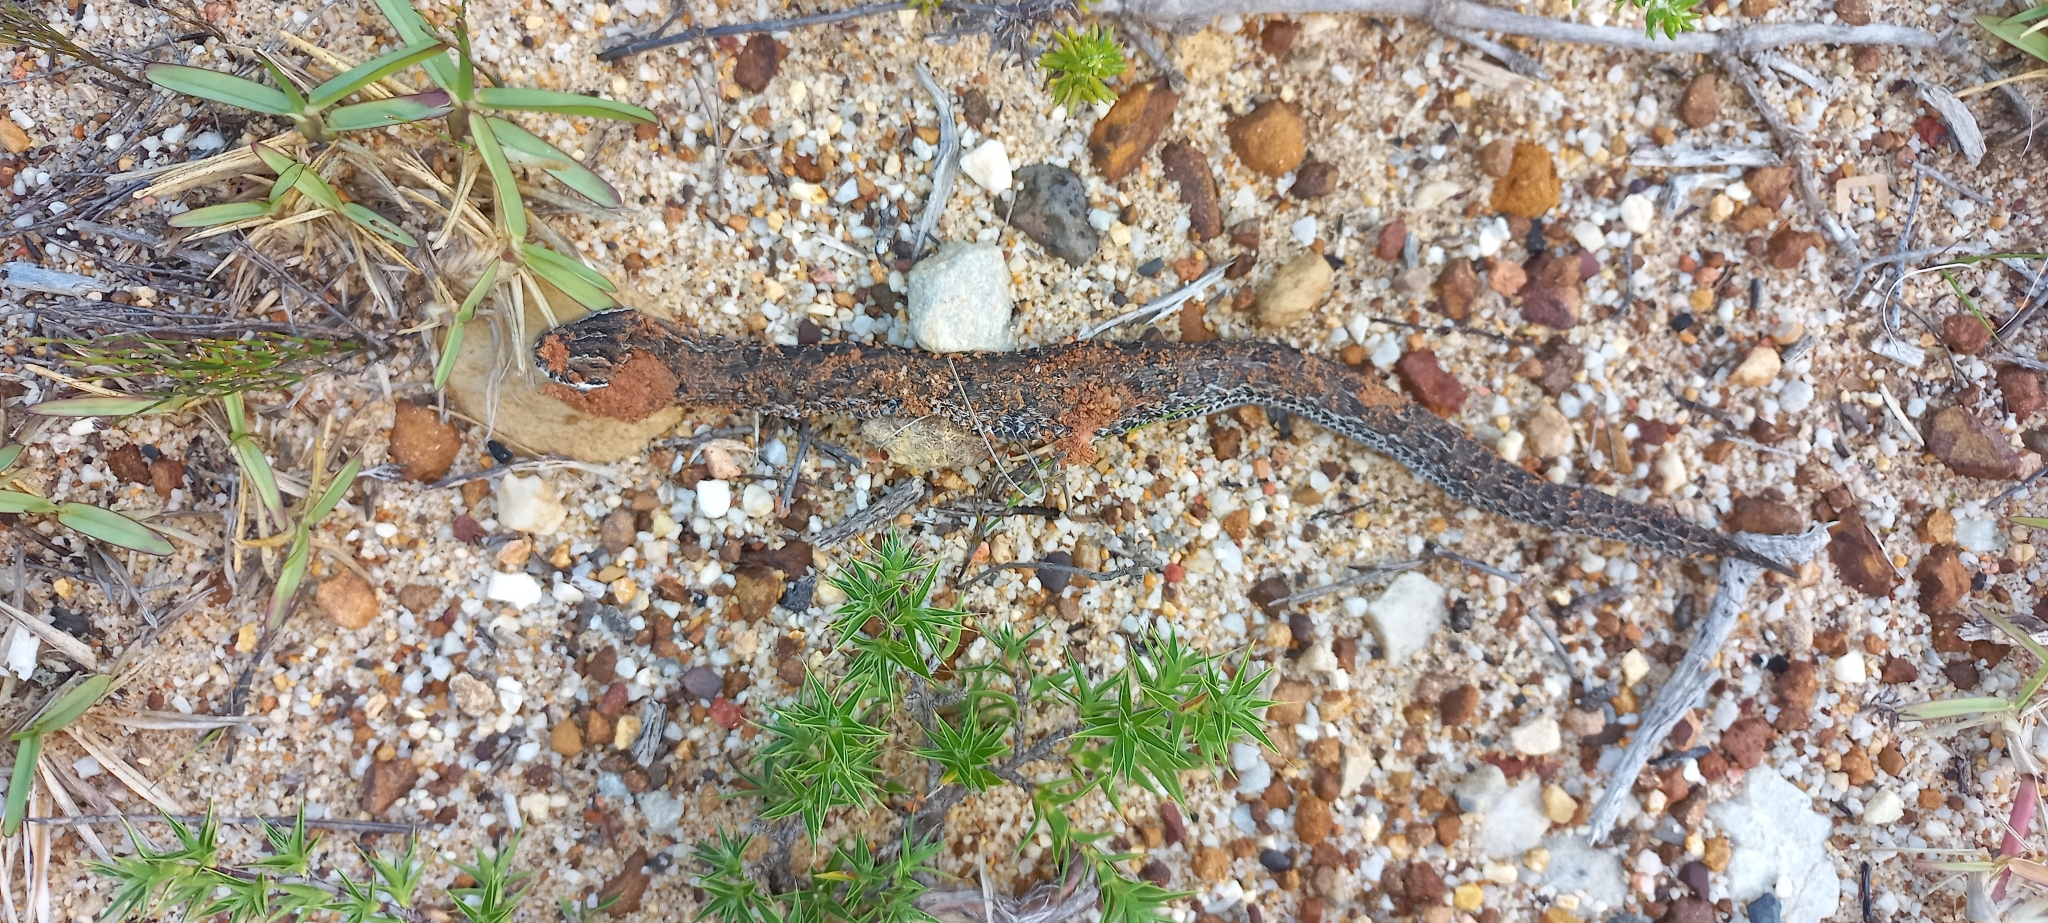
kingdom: Animalia
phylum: Chordata
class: Squamata
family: Viperidae
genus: Bitis
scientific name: Bitis atropos
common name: Mountain adder
